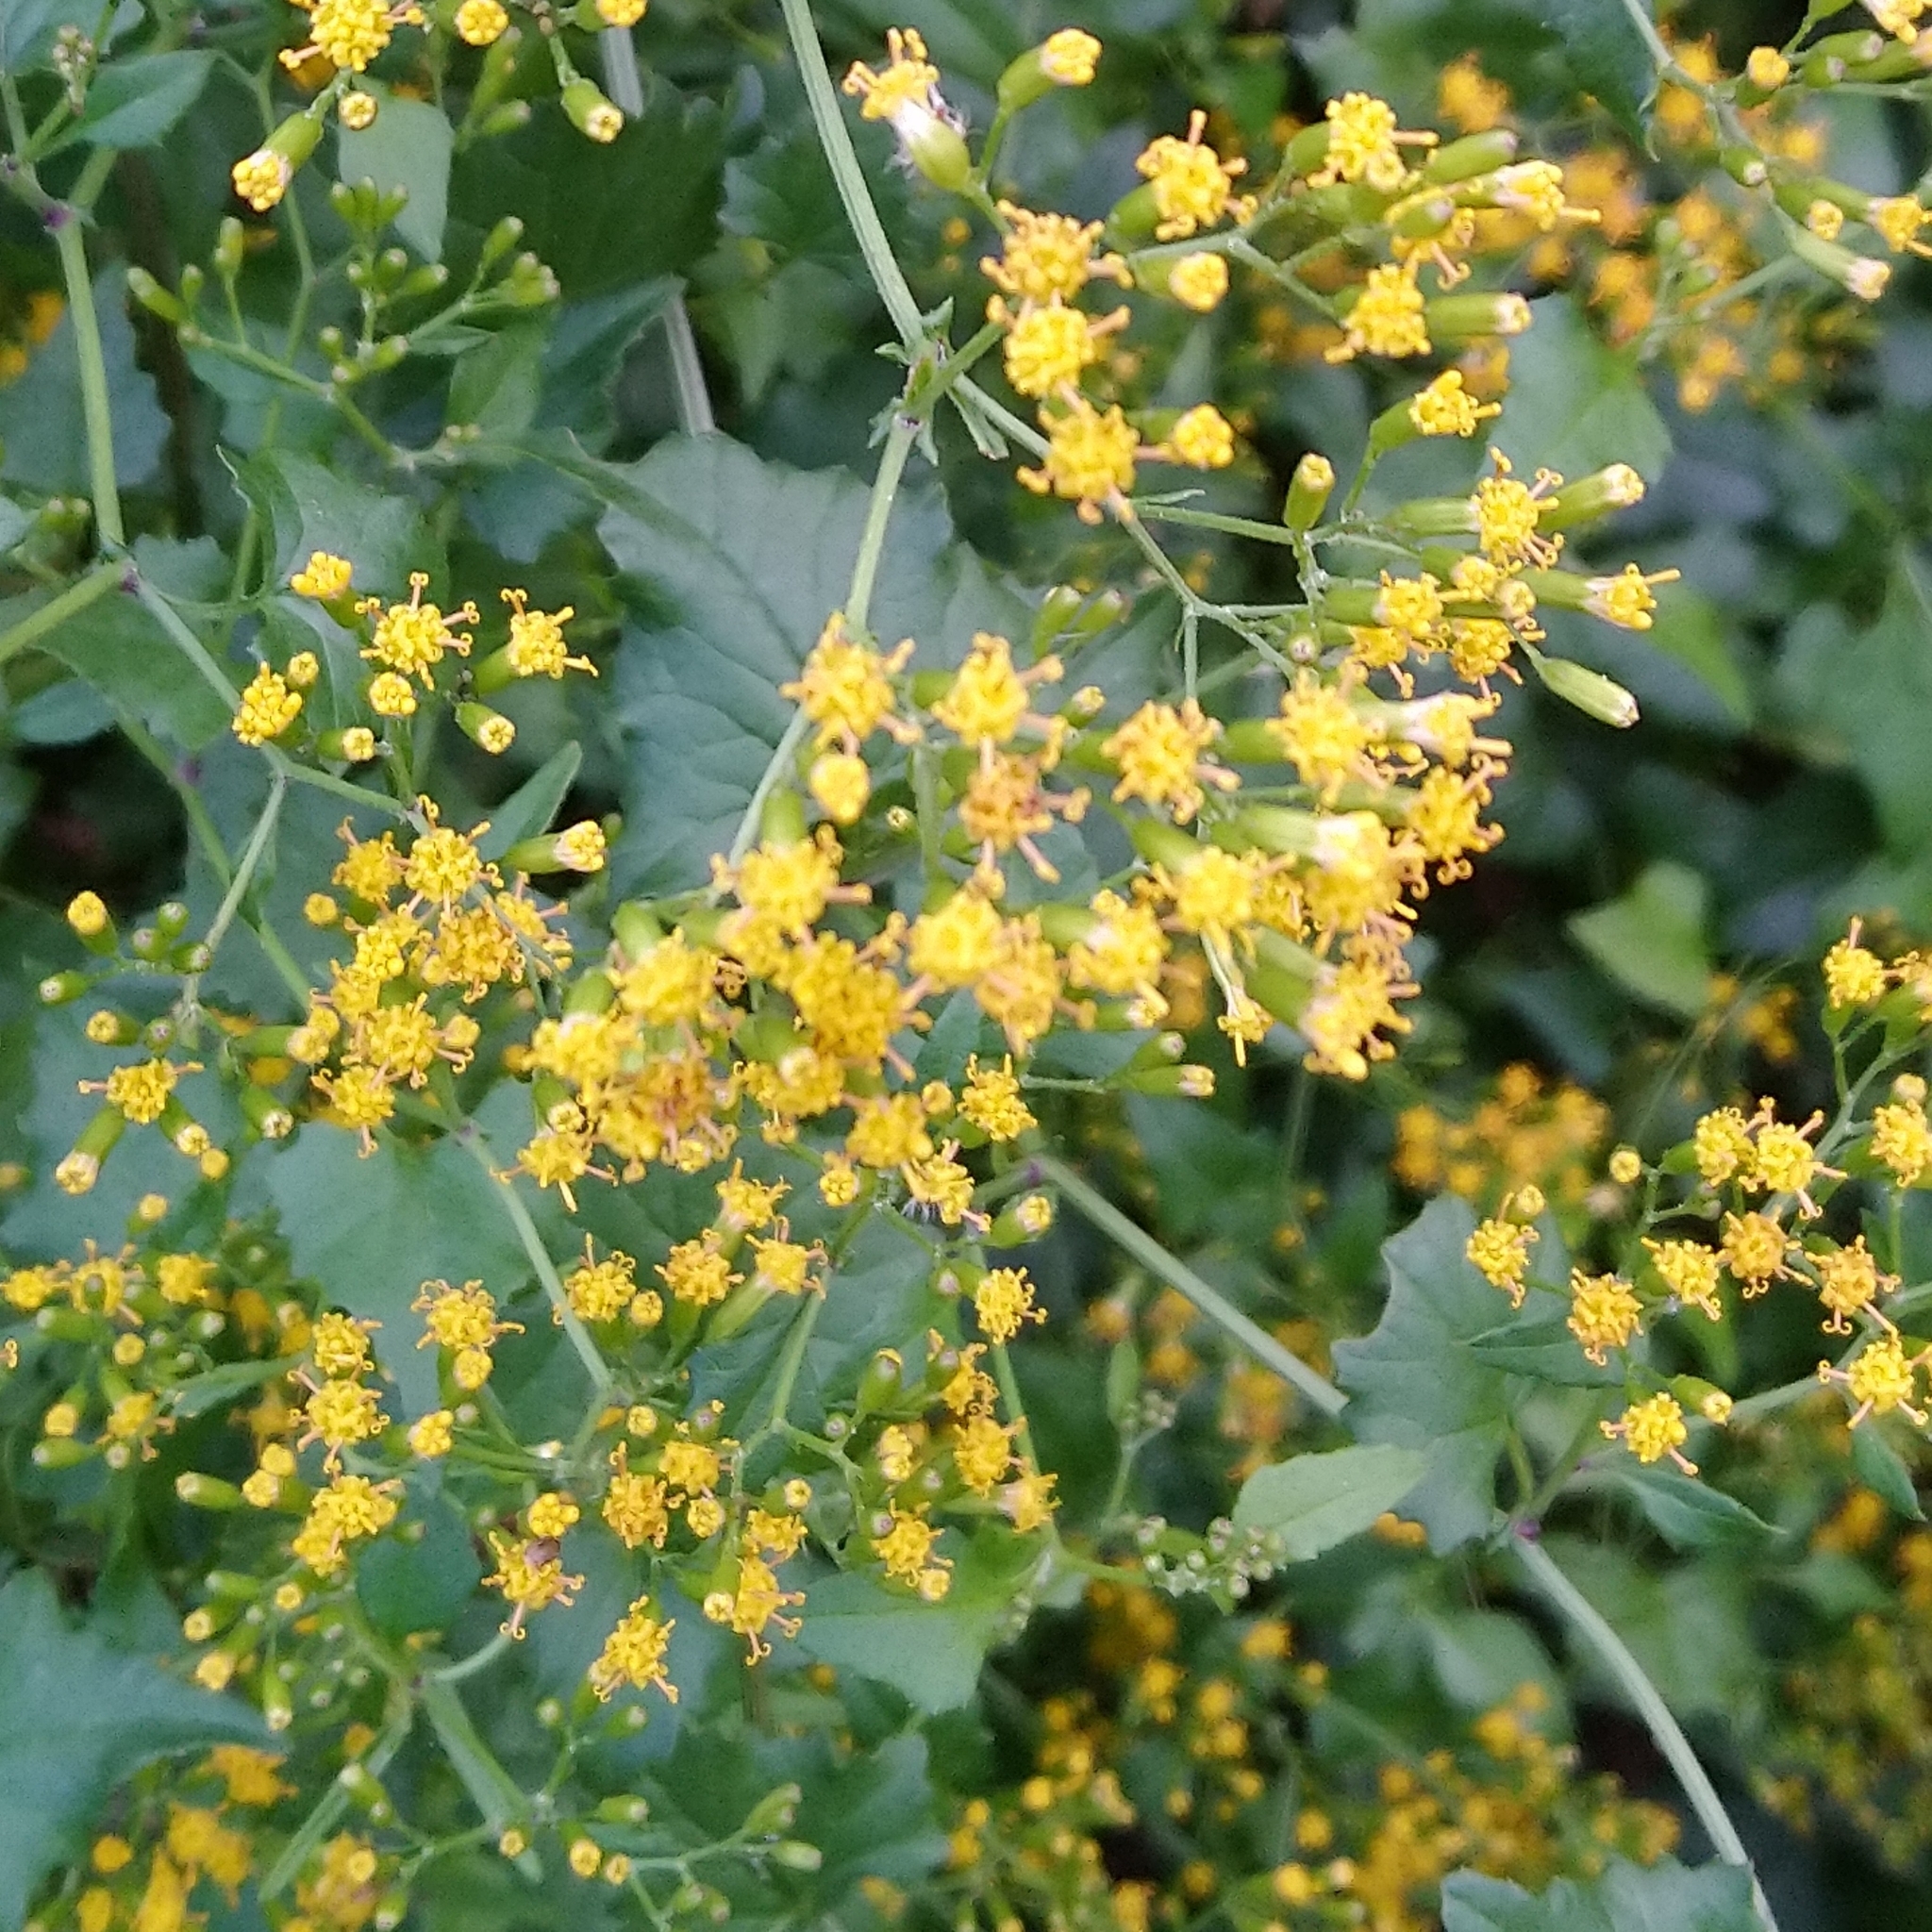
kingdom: Plantae
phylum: Tracheophyta
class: Magnoliopsida
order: Asterales
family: Asteraceae
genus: Senecio
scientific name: Senecio deltoideus
